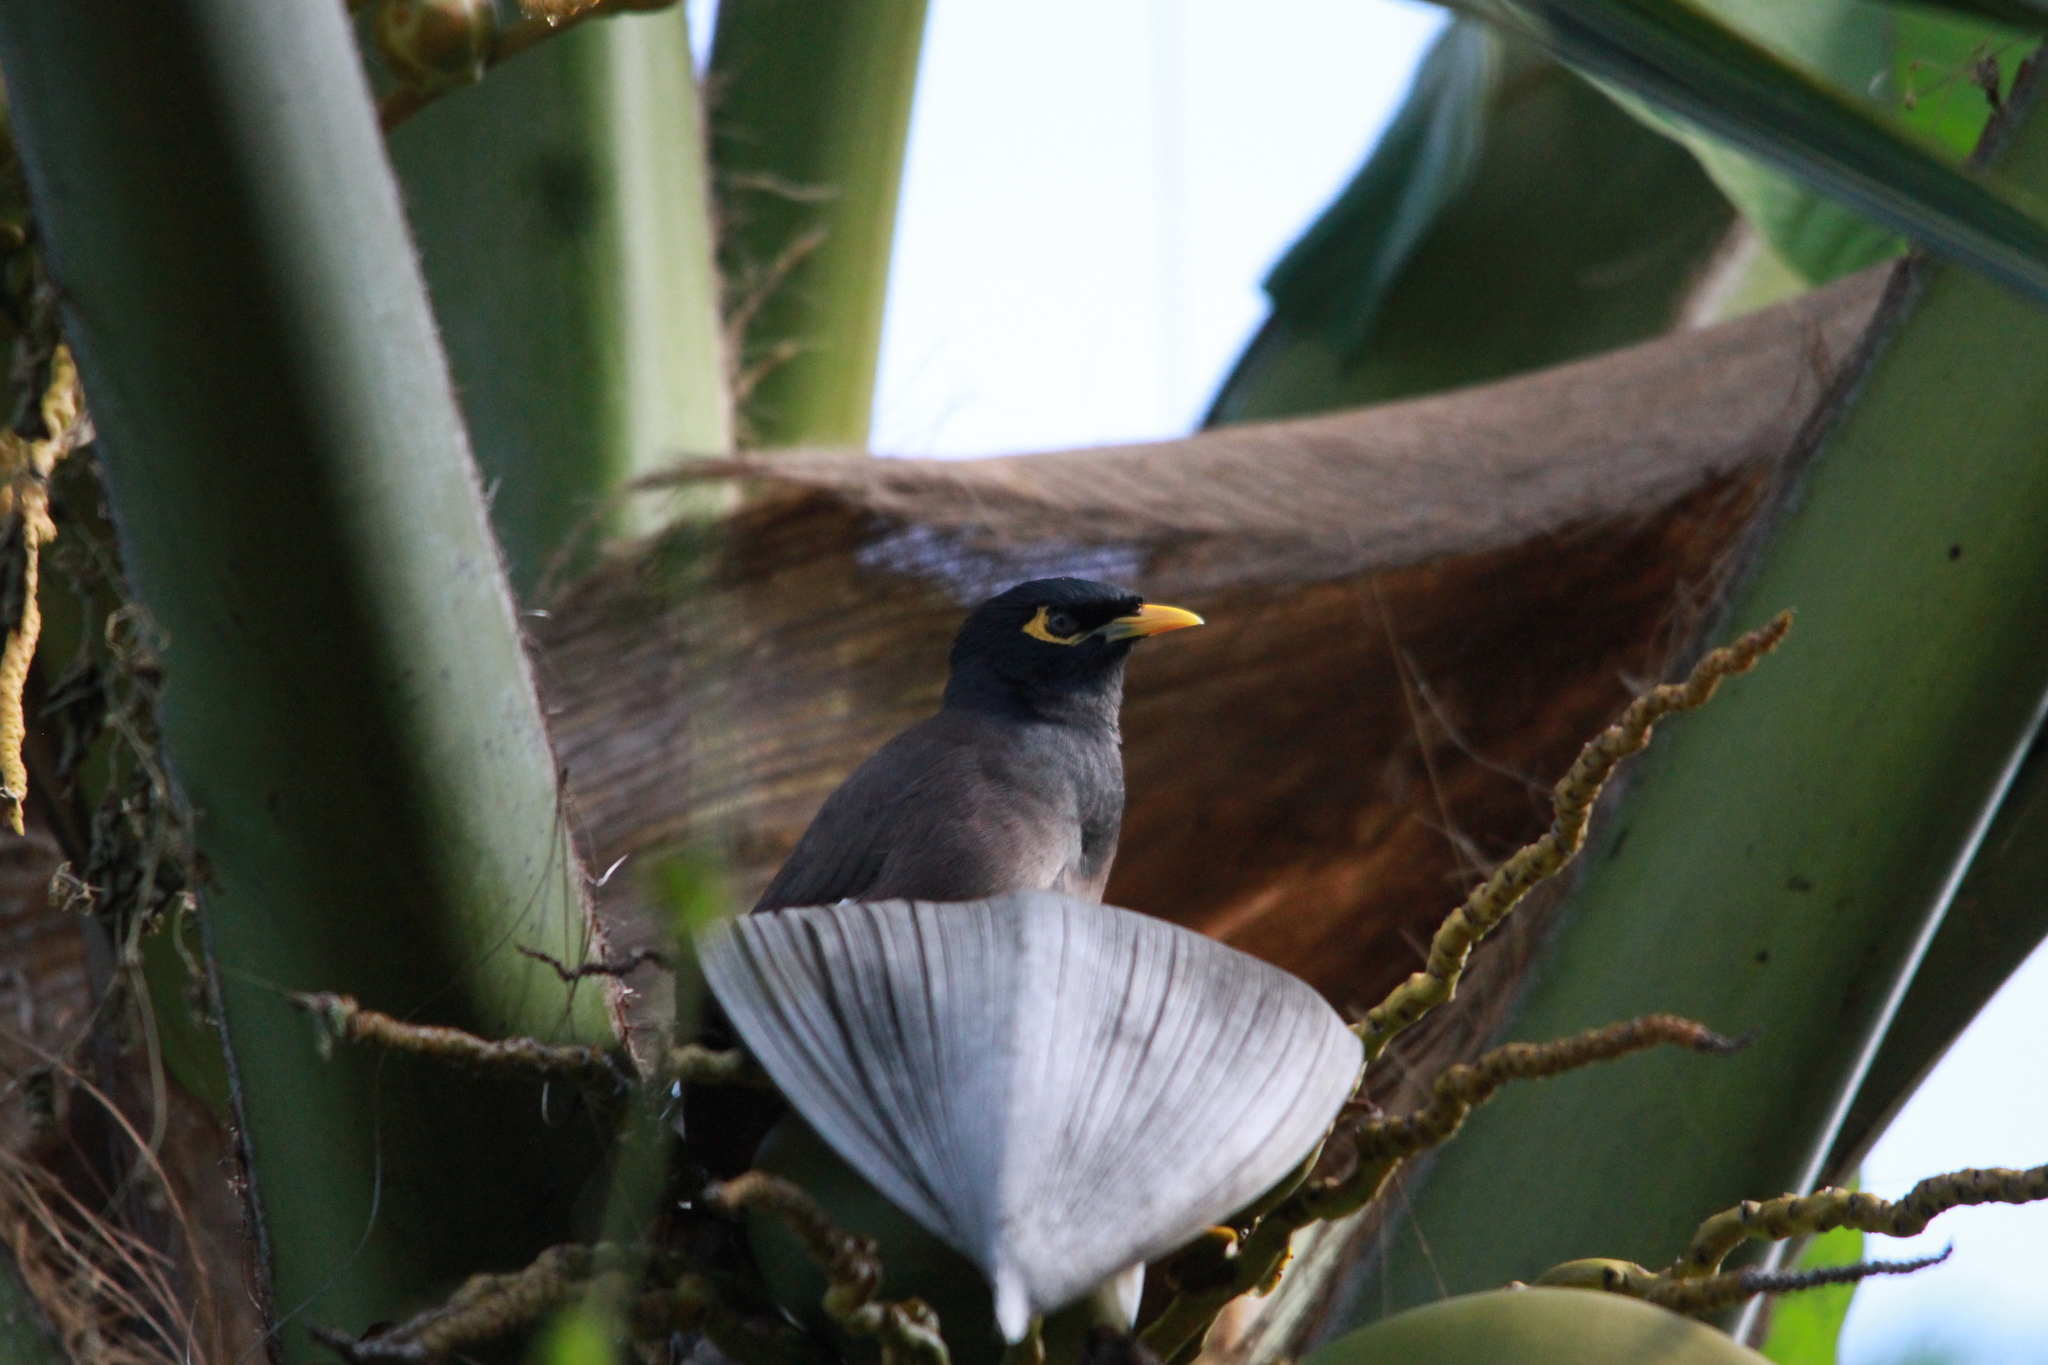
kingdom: Animalia
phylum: Chordata
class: Aves
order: Passeriformes
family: Sturnidae
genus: Acridotheres
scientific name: Acridotheres tristis
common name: Common myna
